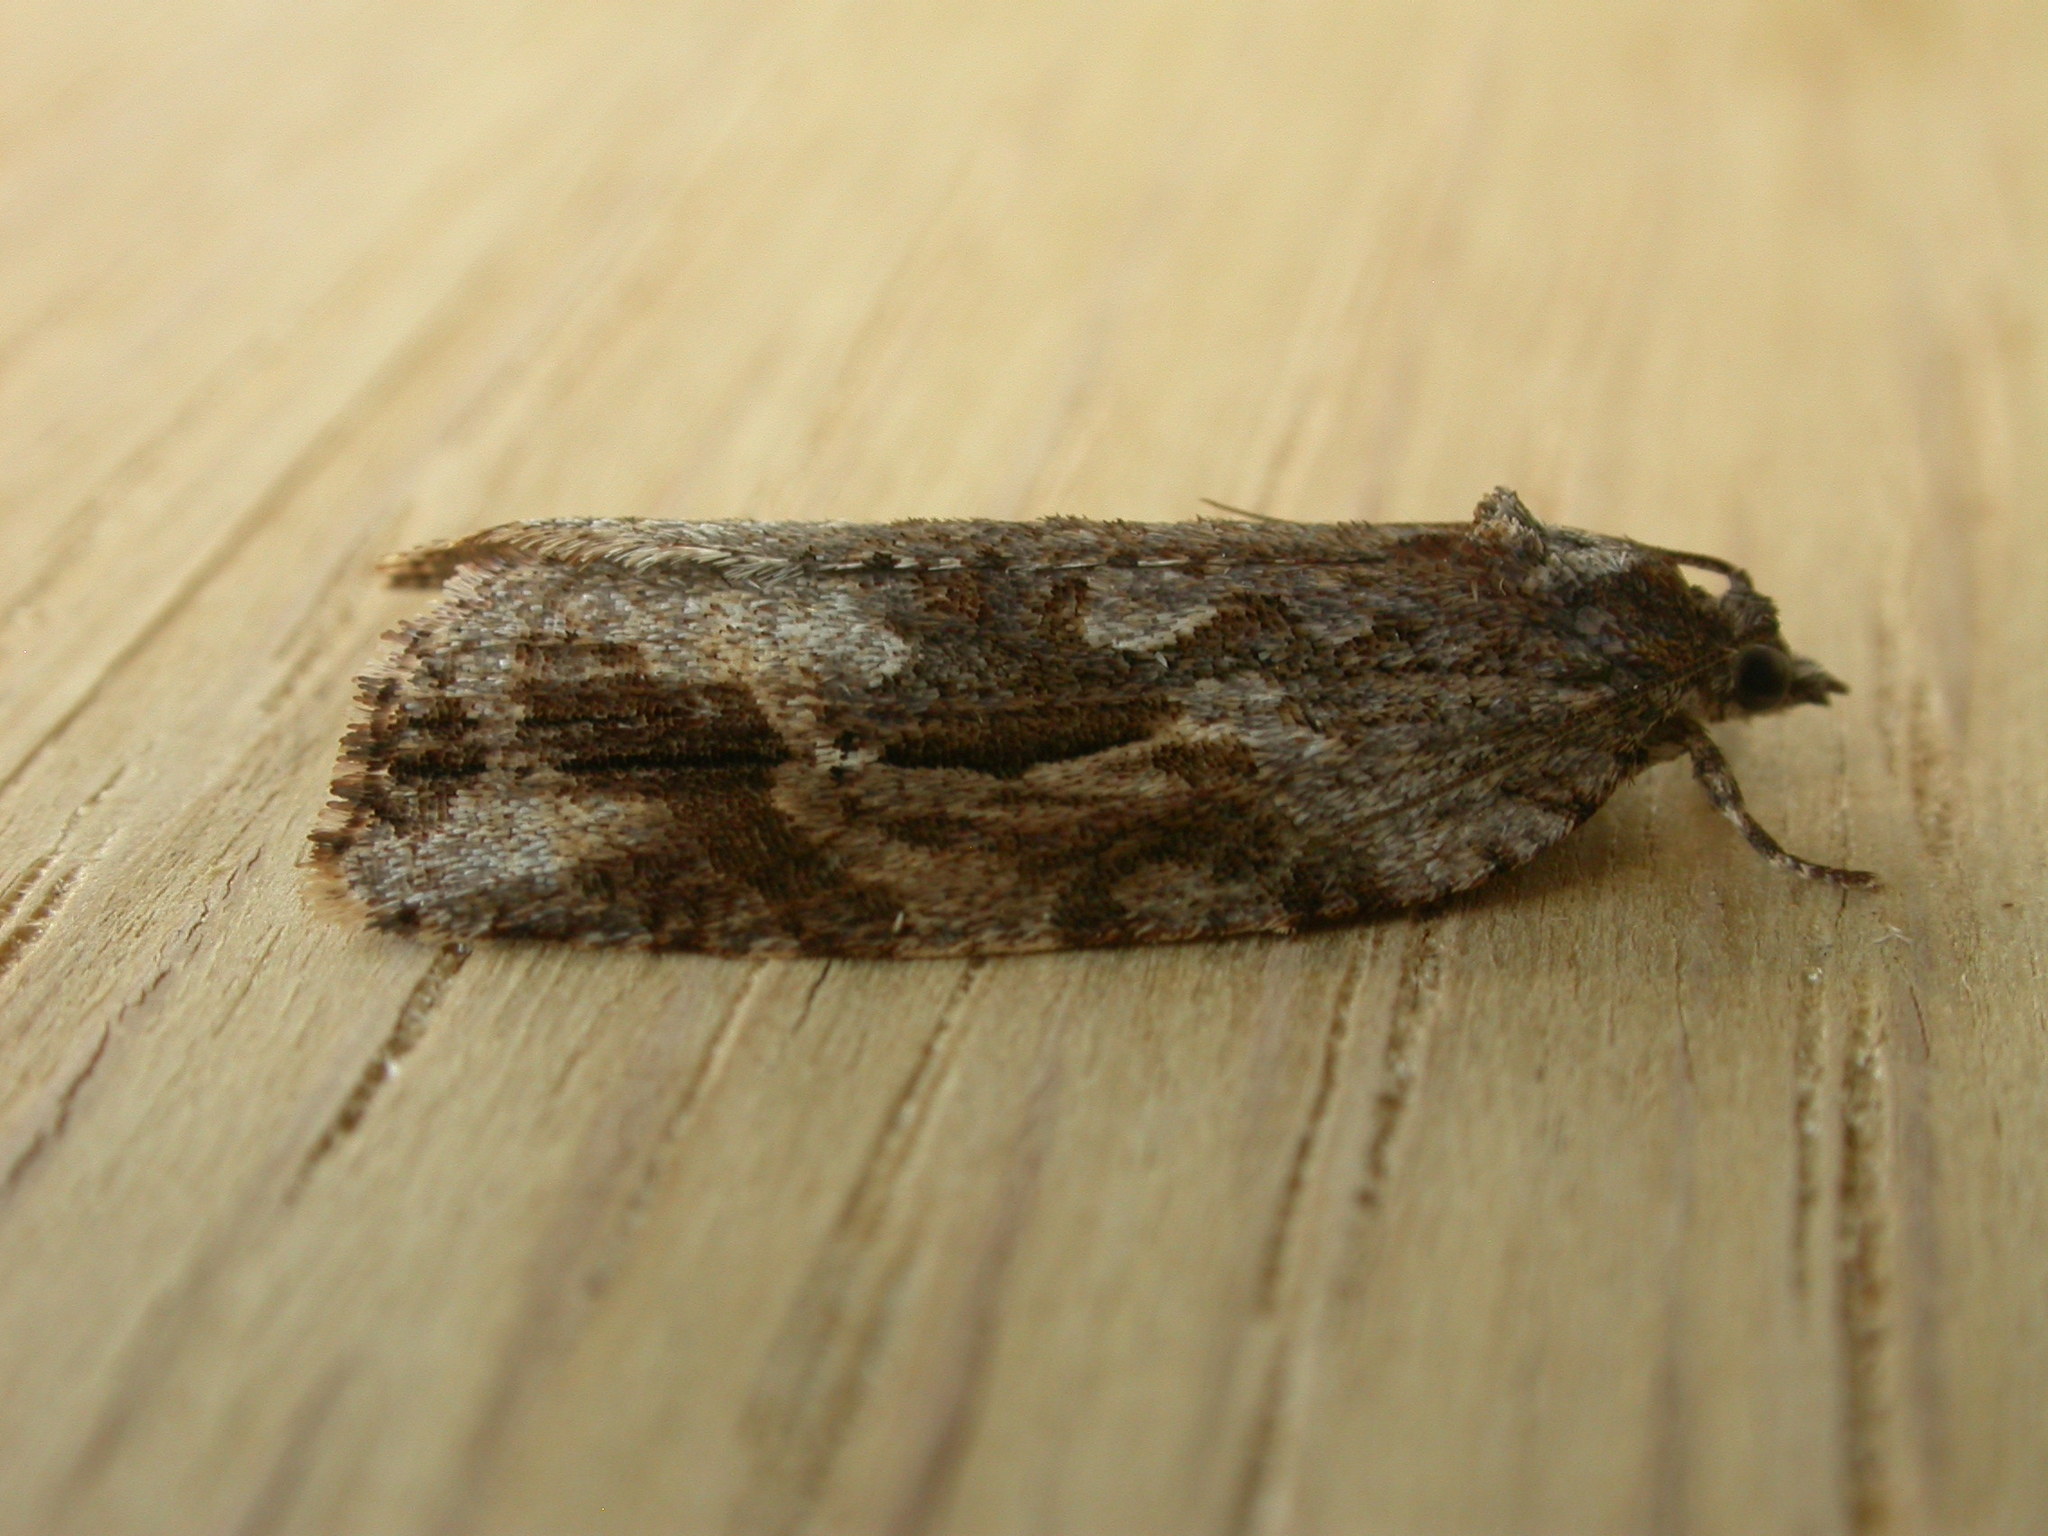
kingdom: Animalia
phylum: Arthropoda
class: Insecta
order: Lepidoptera
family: Tortricidae
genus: Thrincophora
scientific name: Thrincophora lignigerana
